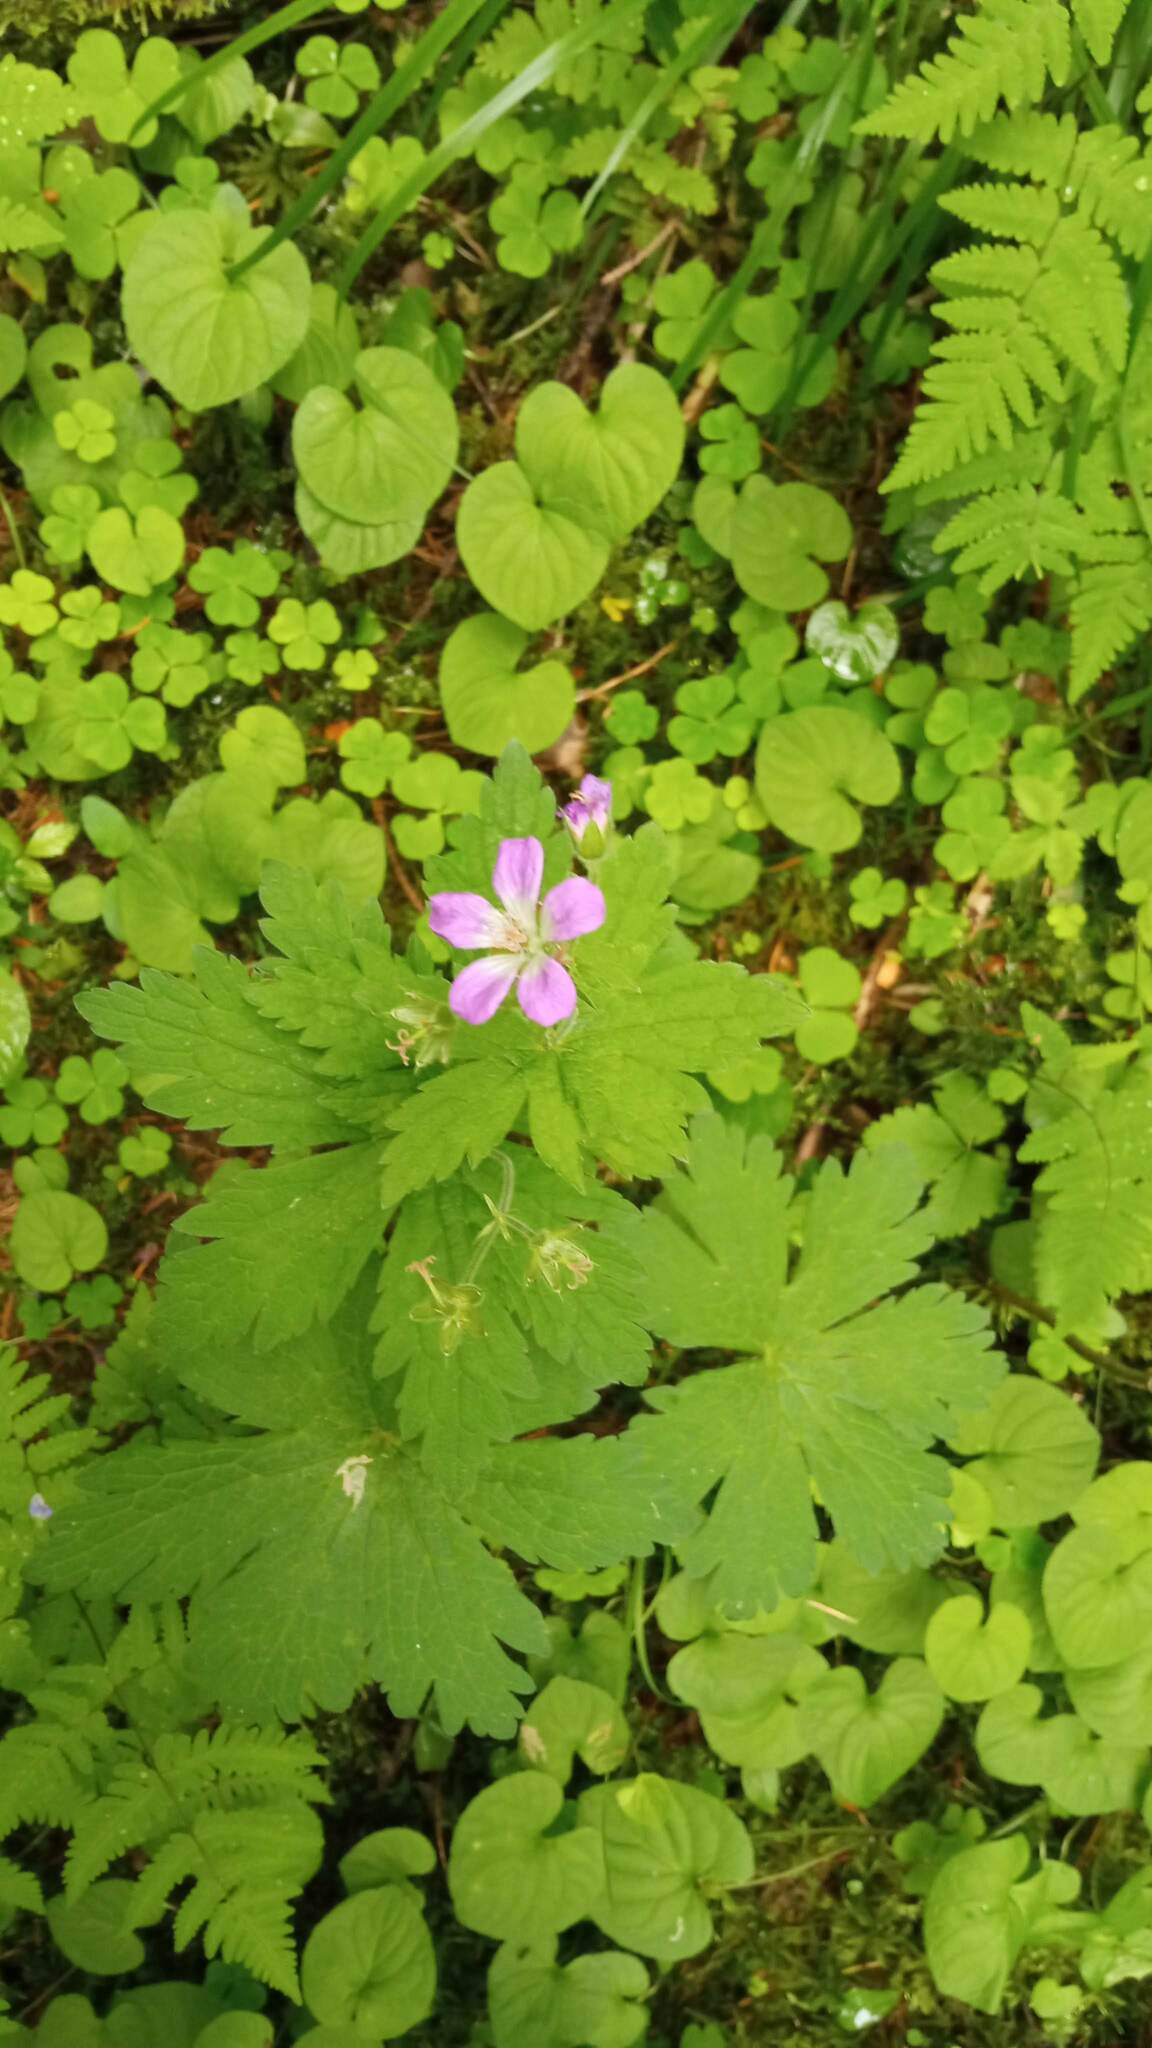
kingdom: Plantae
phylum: Tracheophyta
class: Magnoliopsida
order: Geraniales
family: Geraniaceae
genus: Geranium
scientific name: Geranium sylvaticum
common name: Wood crane's-bill
